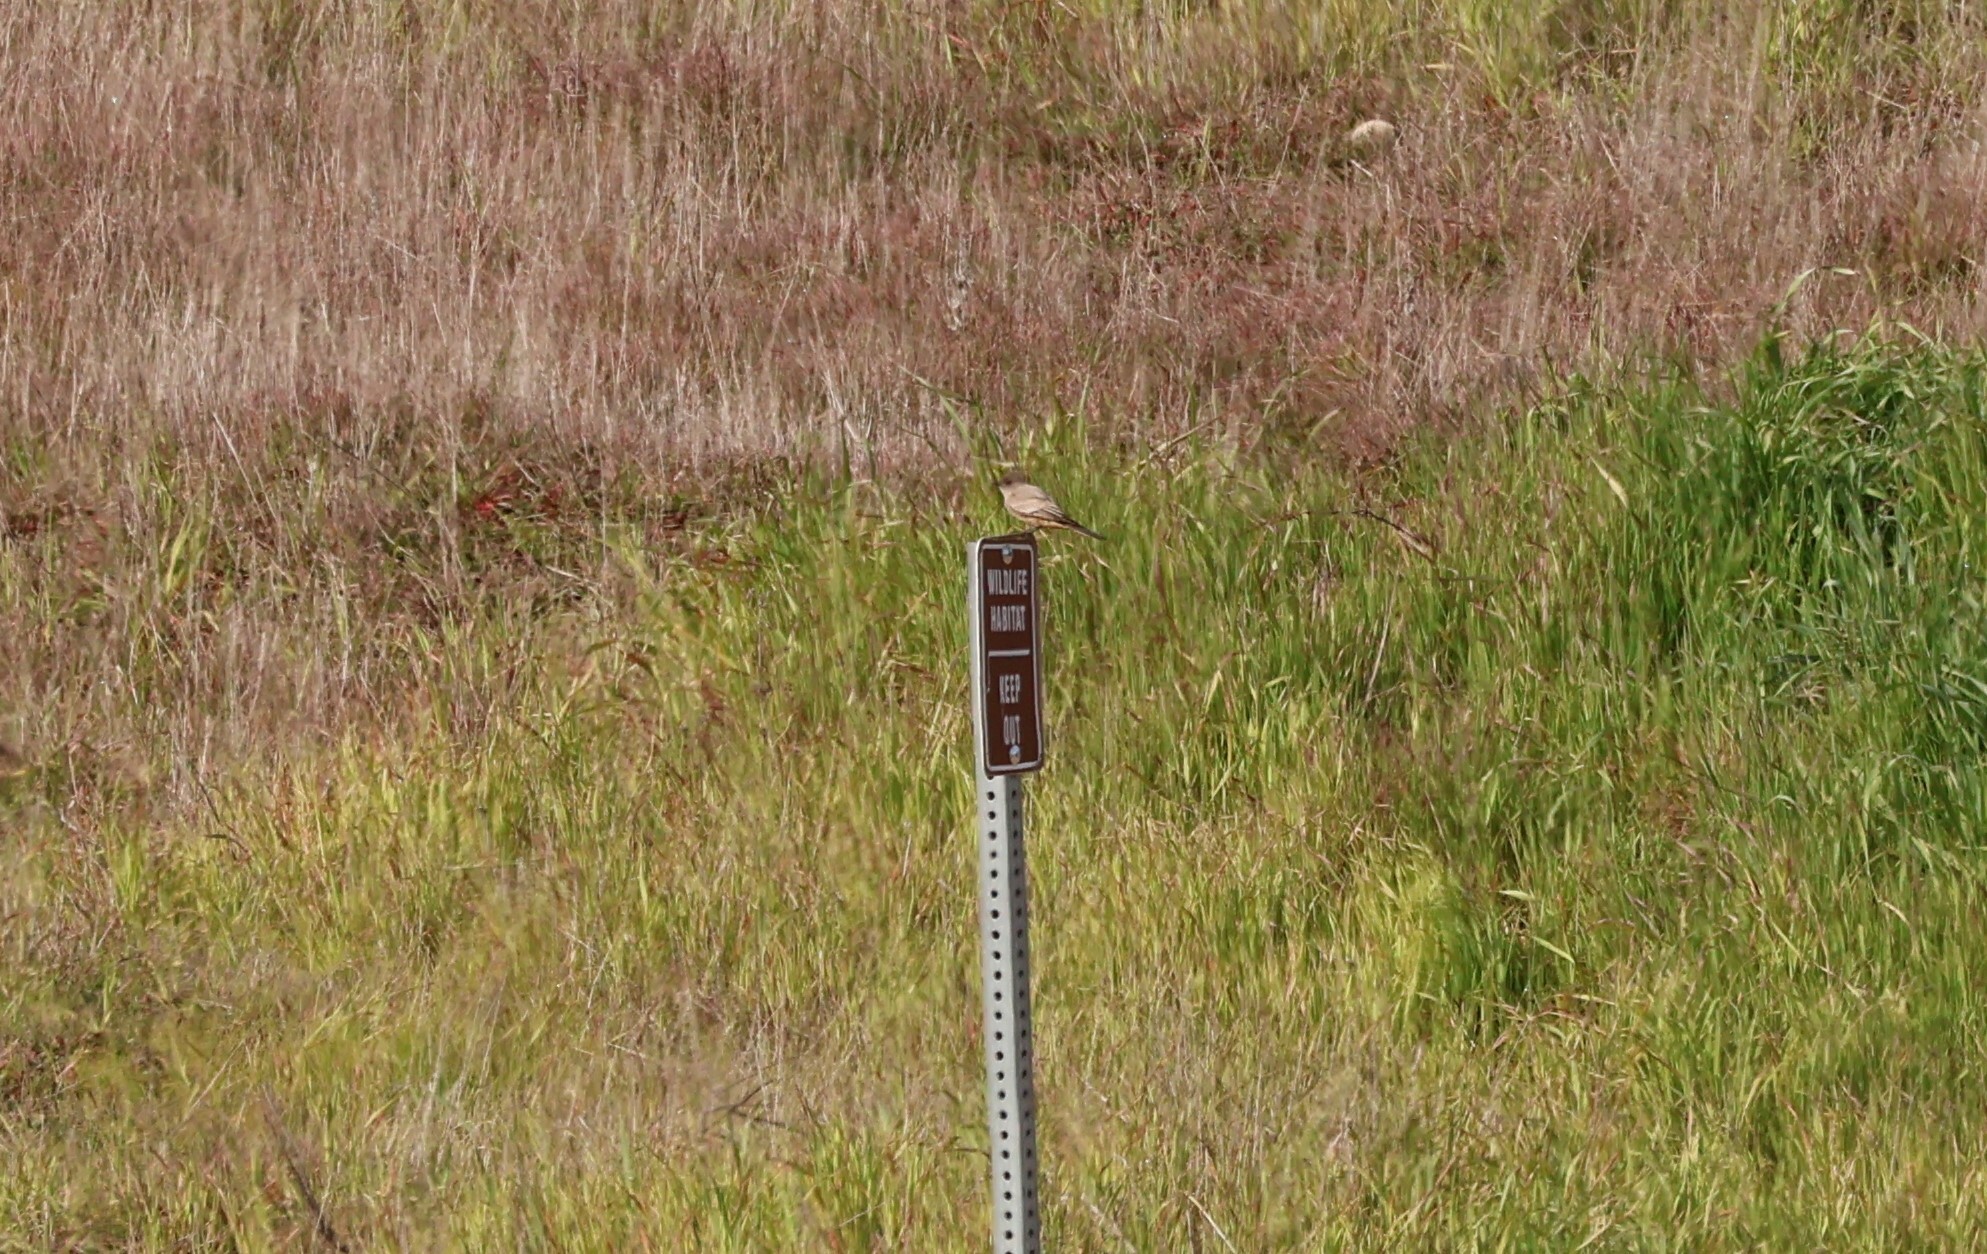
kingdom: Animalia
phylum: Chordata
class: Aves
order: Passeriformes
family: Tyrannidae
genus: Sayornis
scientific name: Sayornis saya
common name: Say's phoebe
